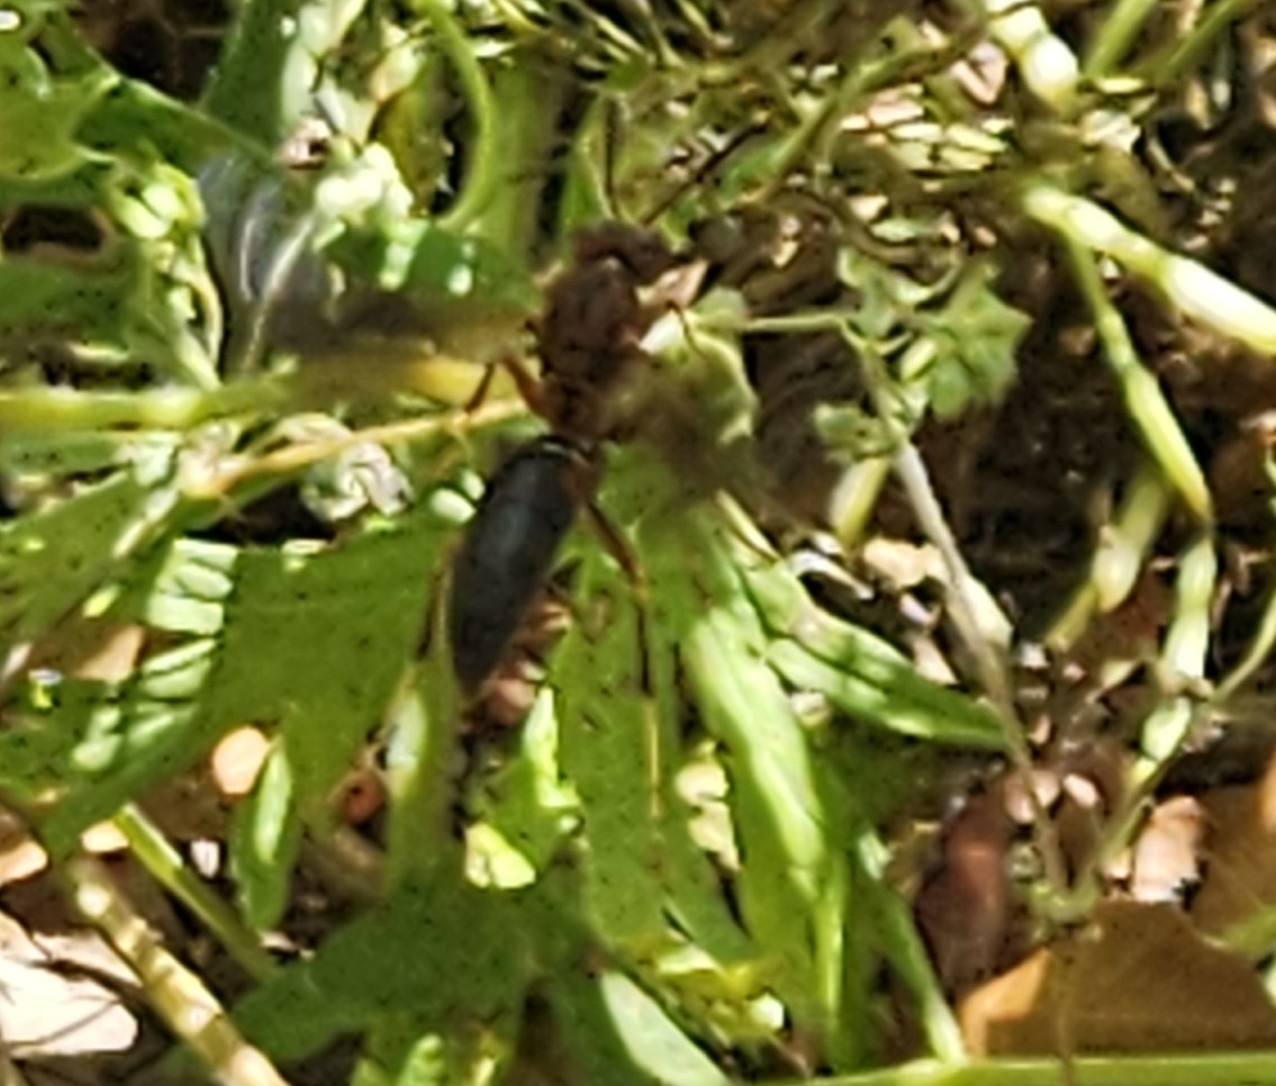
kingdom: Animalia
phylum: Arthropoda
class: Insecta
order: Hymenoptera
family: Eumenidae
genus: Polistes
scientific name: Polistes metricus
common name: Metric paper wasp
